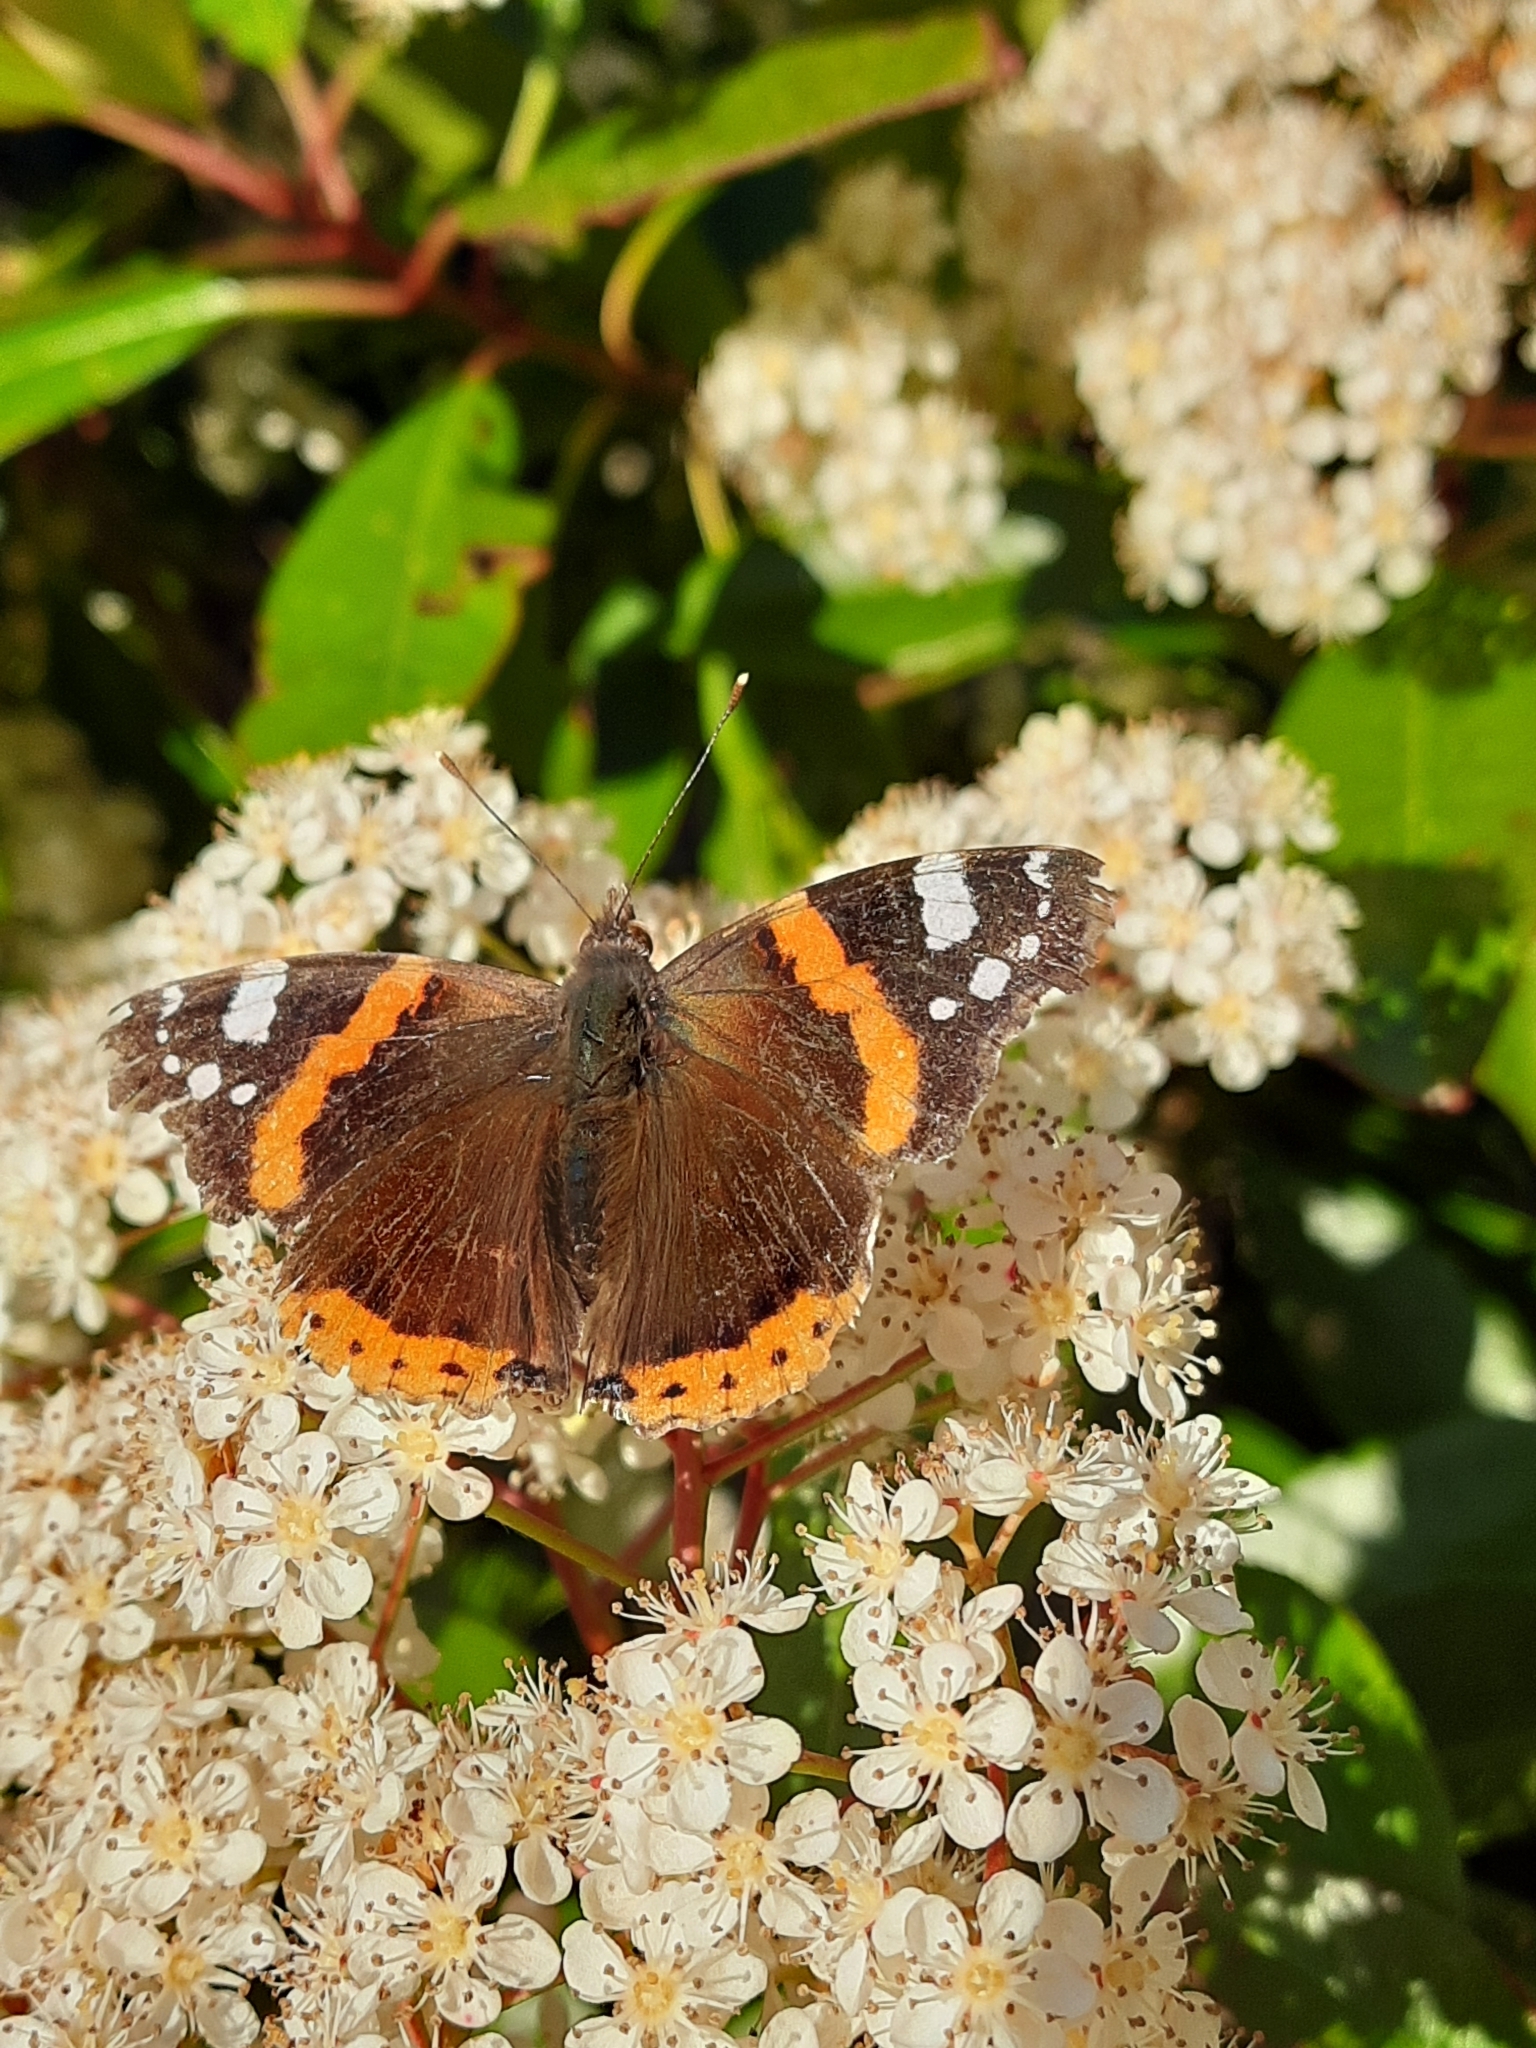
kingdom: Animalia
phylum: Arthropoda
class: Insecta
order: Lepidoptera
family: Nymphalidae
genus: Vanessa
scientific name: Vanessa atalanta
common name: Red admiral
